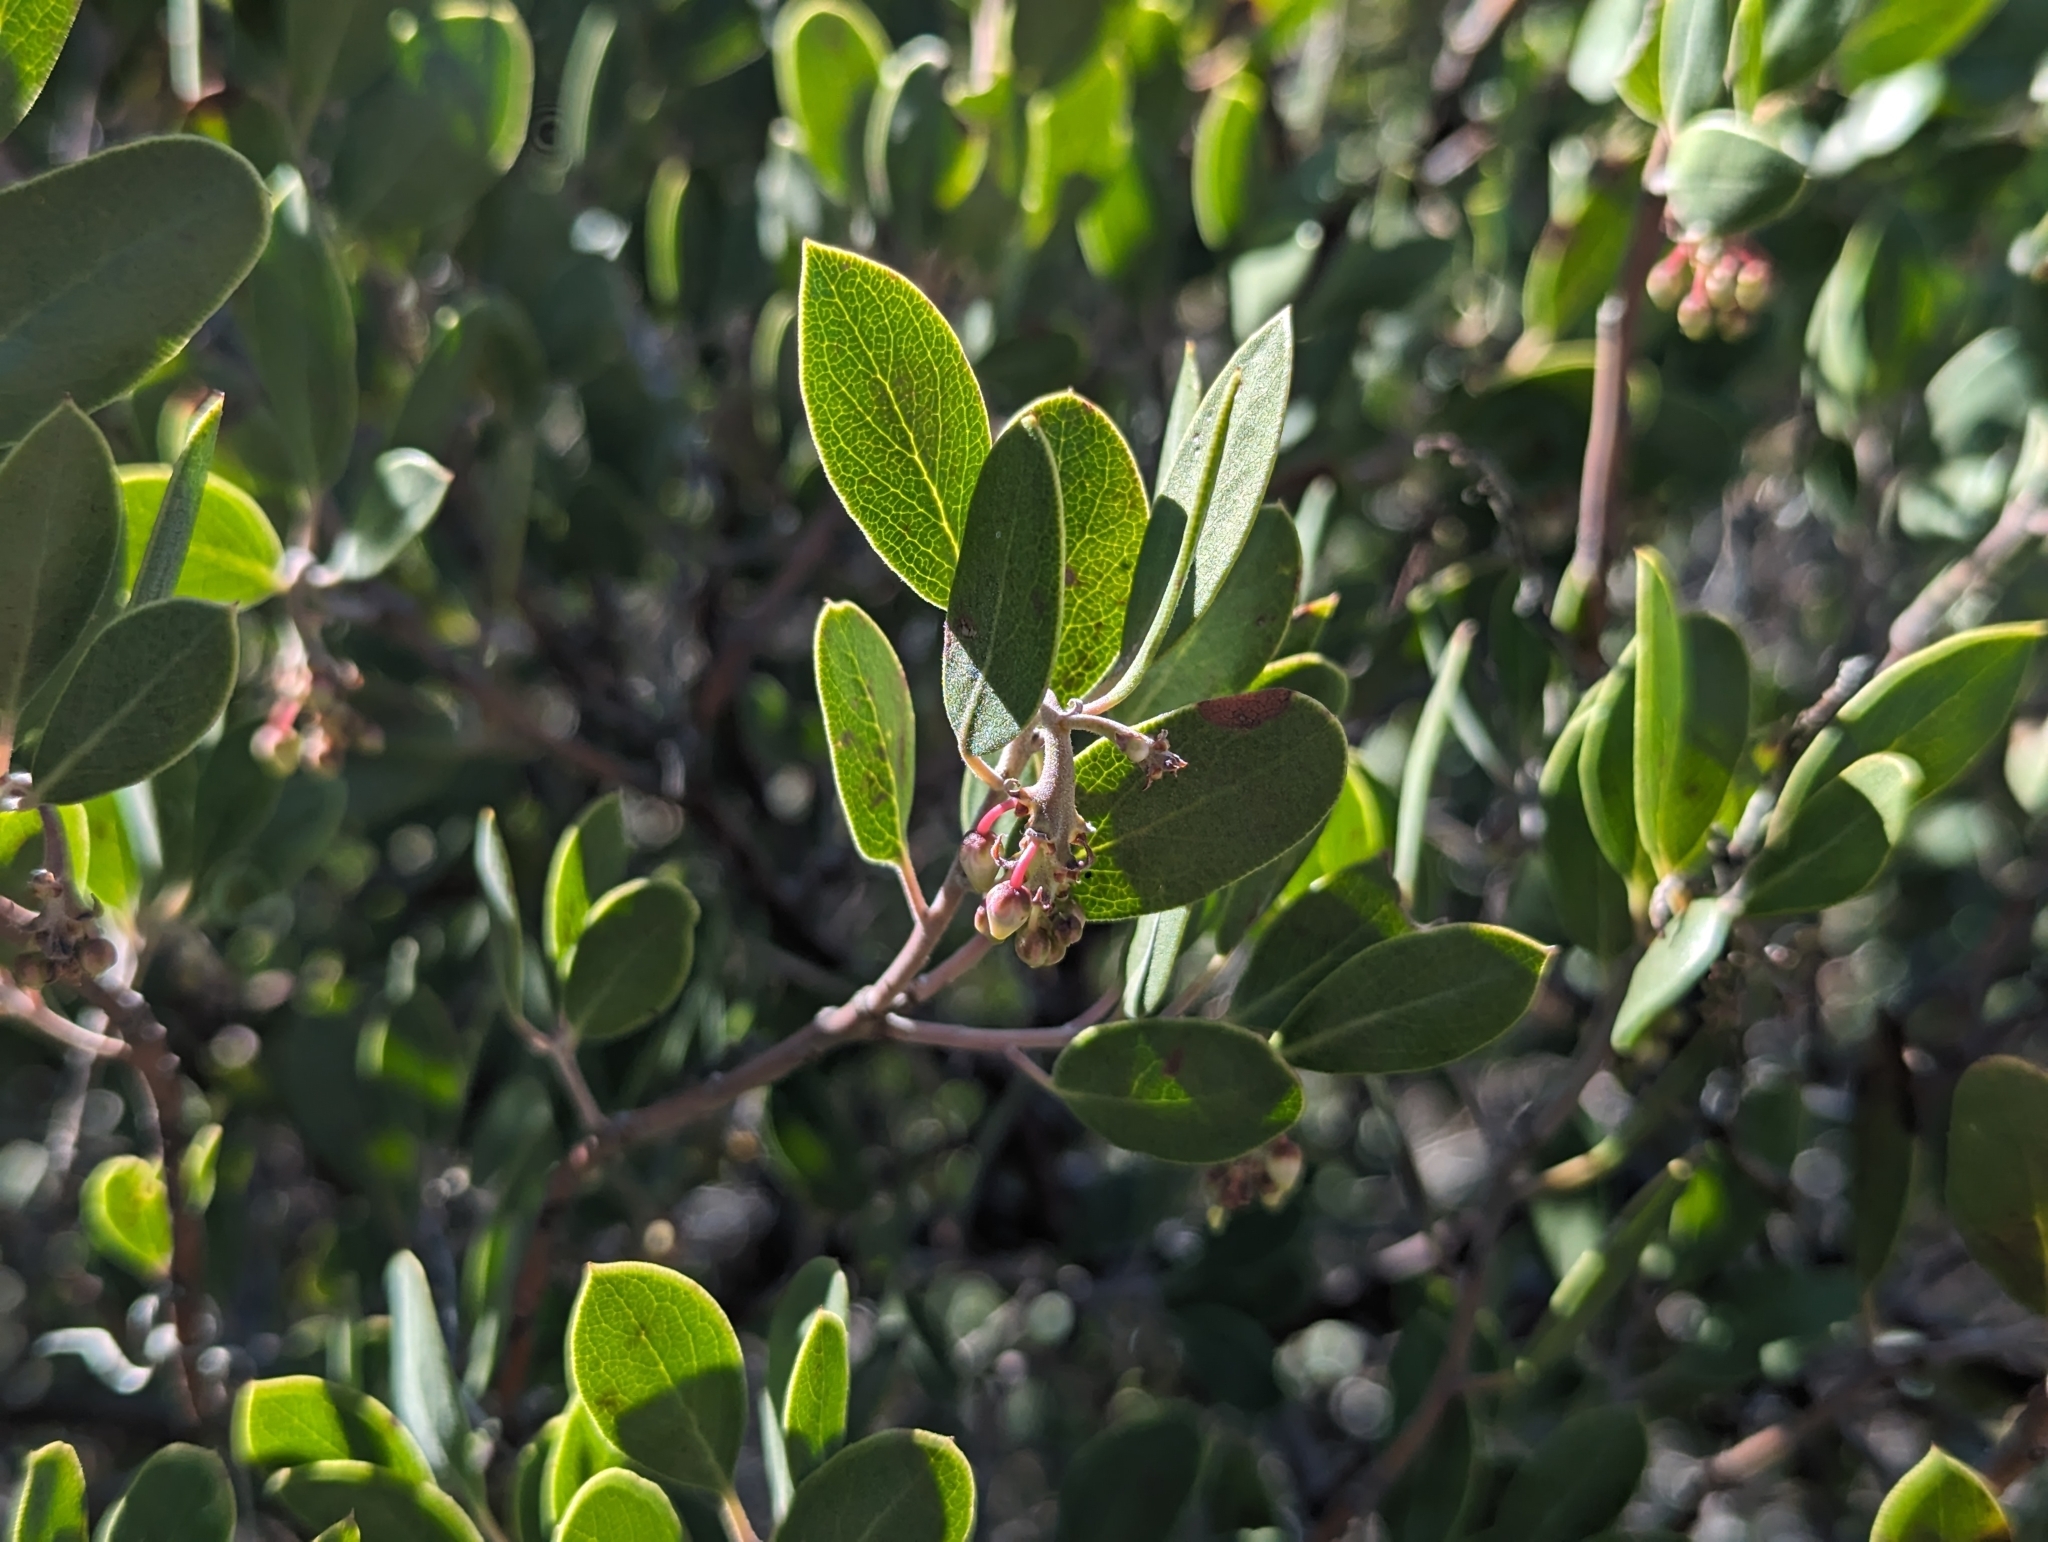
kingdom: Plantae
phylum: Tracheophyta
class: Magnoliopsida
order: Ericales
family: Ericaceae
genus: Arctostaphylos
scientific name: Arctostaphylos pungens
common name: Mexican manzanita
